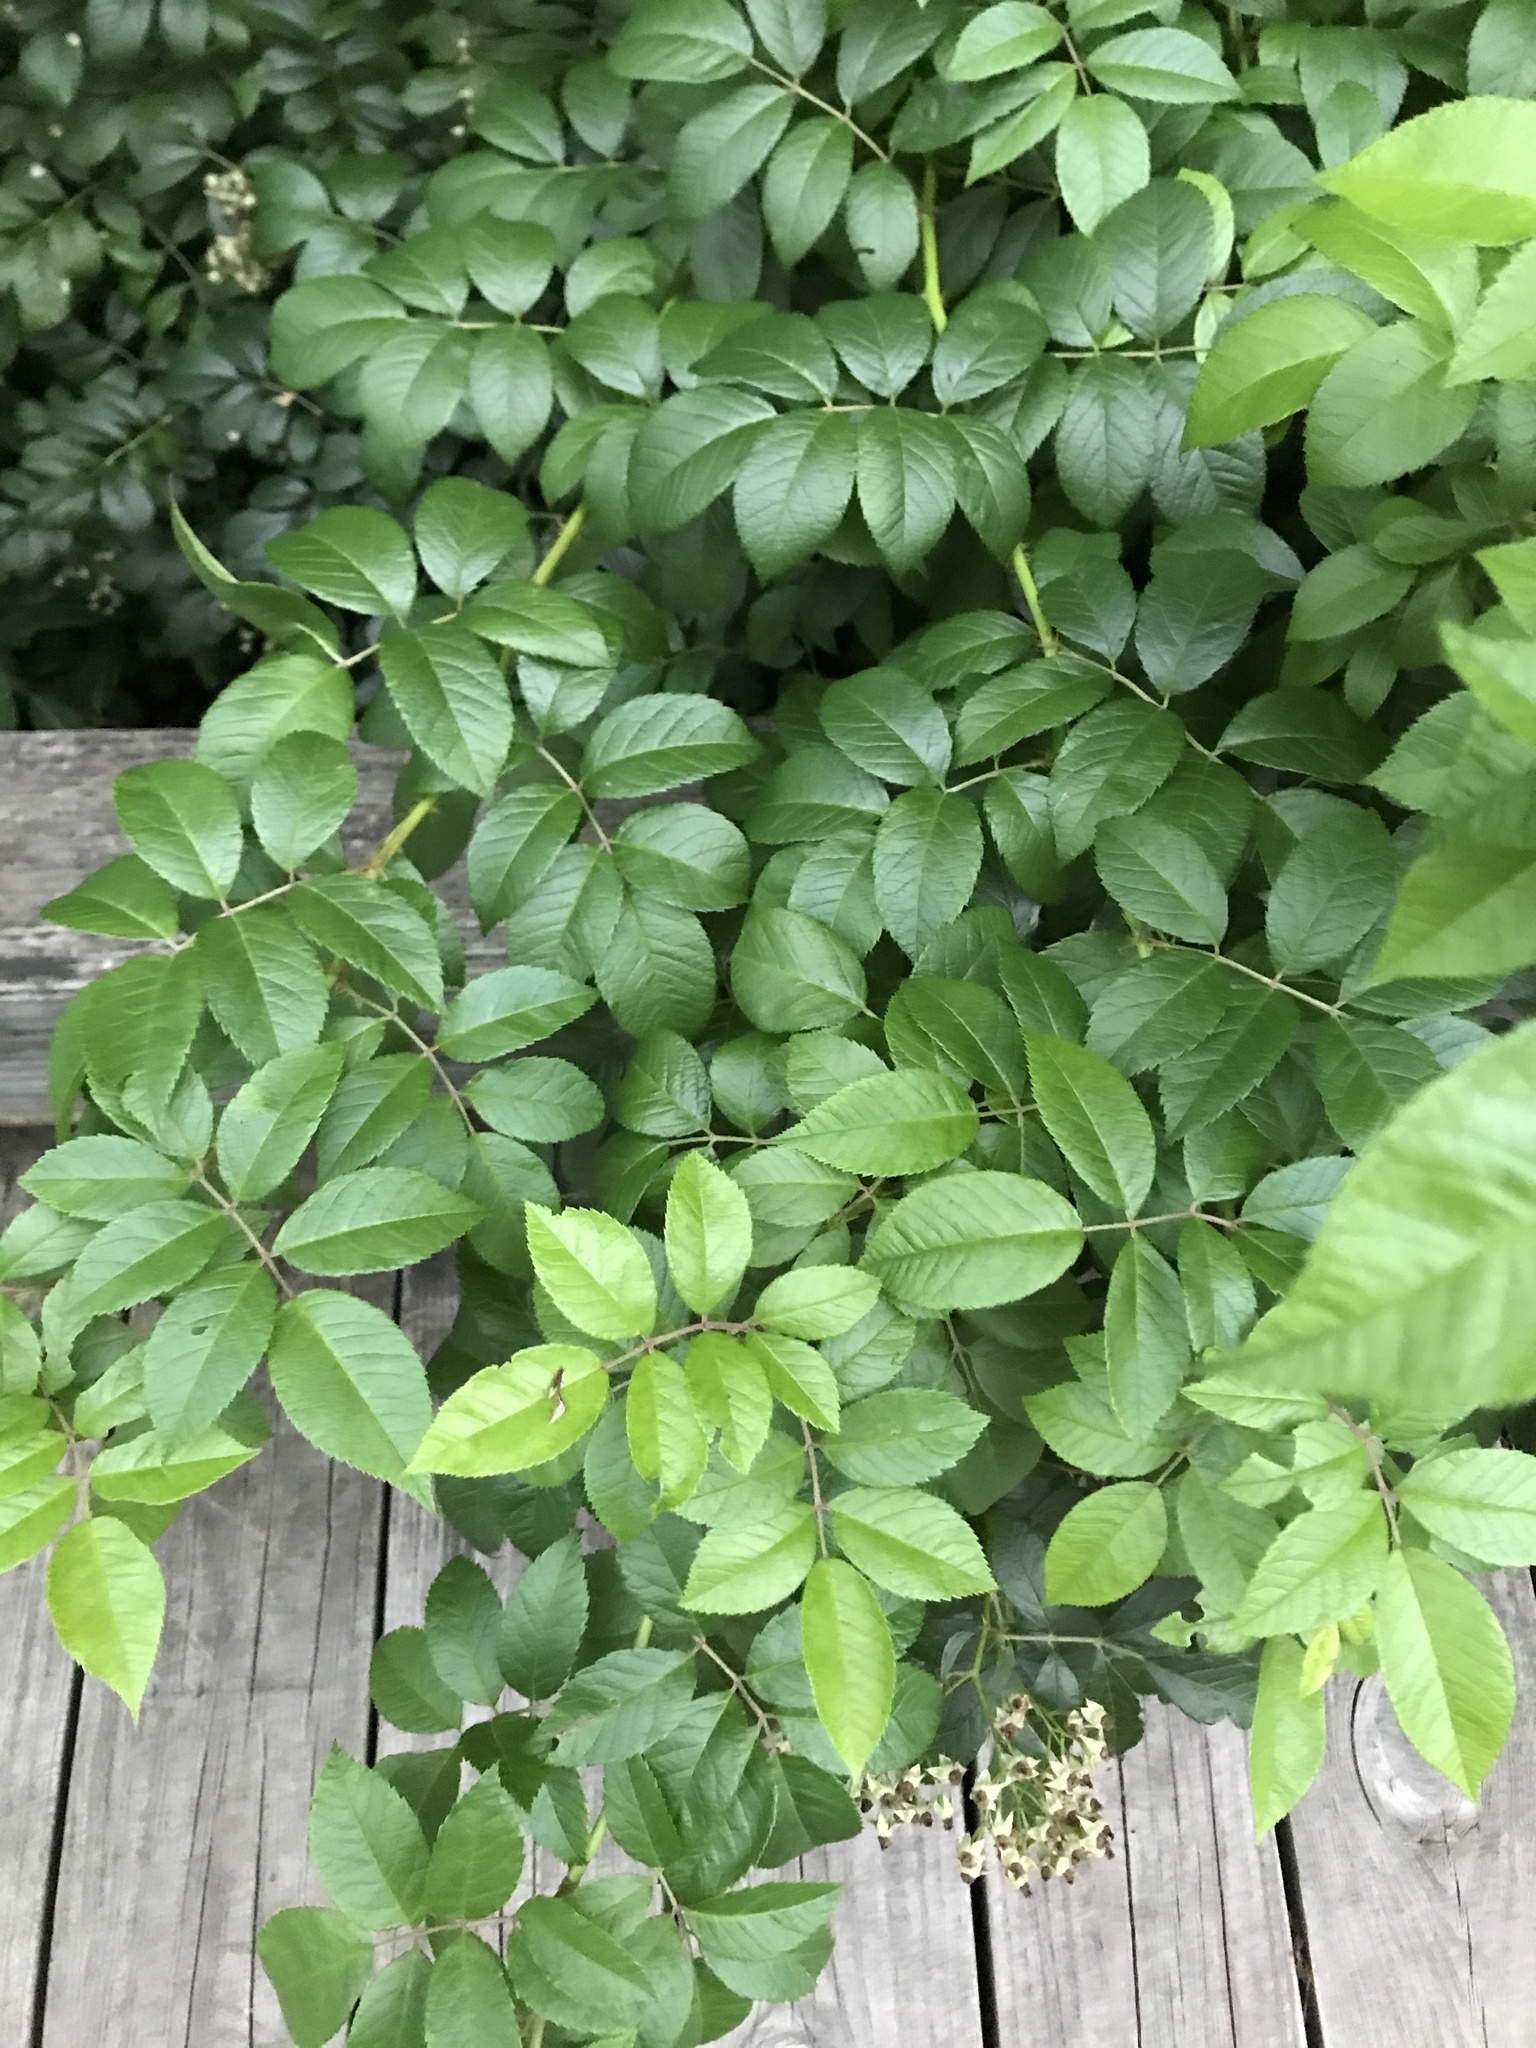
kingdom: Plantae
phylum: Tracheophyta
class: Magnoliopsida
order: Rosales
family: Rosaceae
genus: Rosa
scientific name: Rosa multiflora
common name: Multiflora rose
